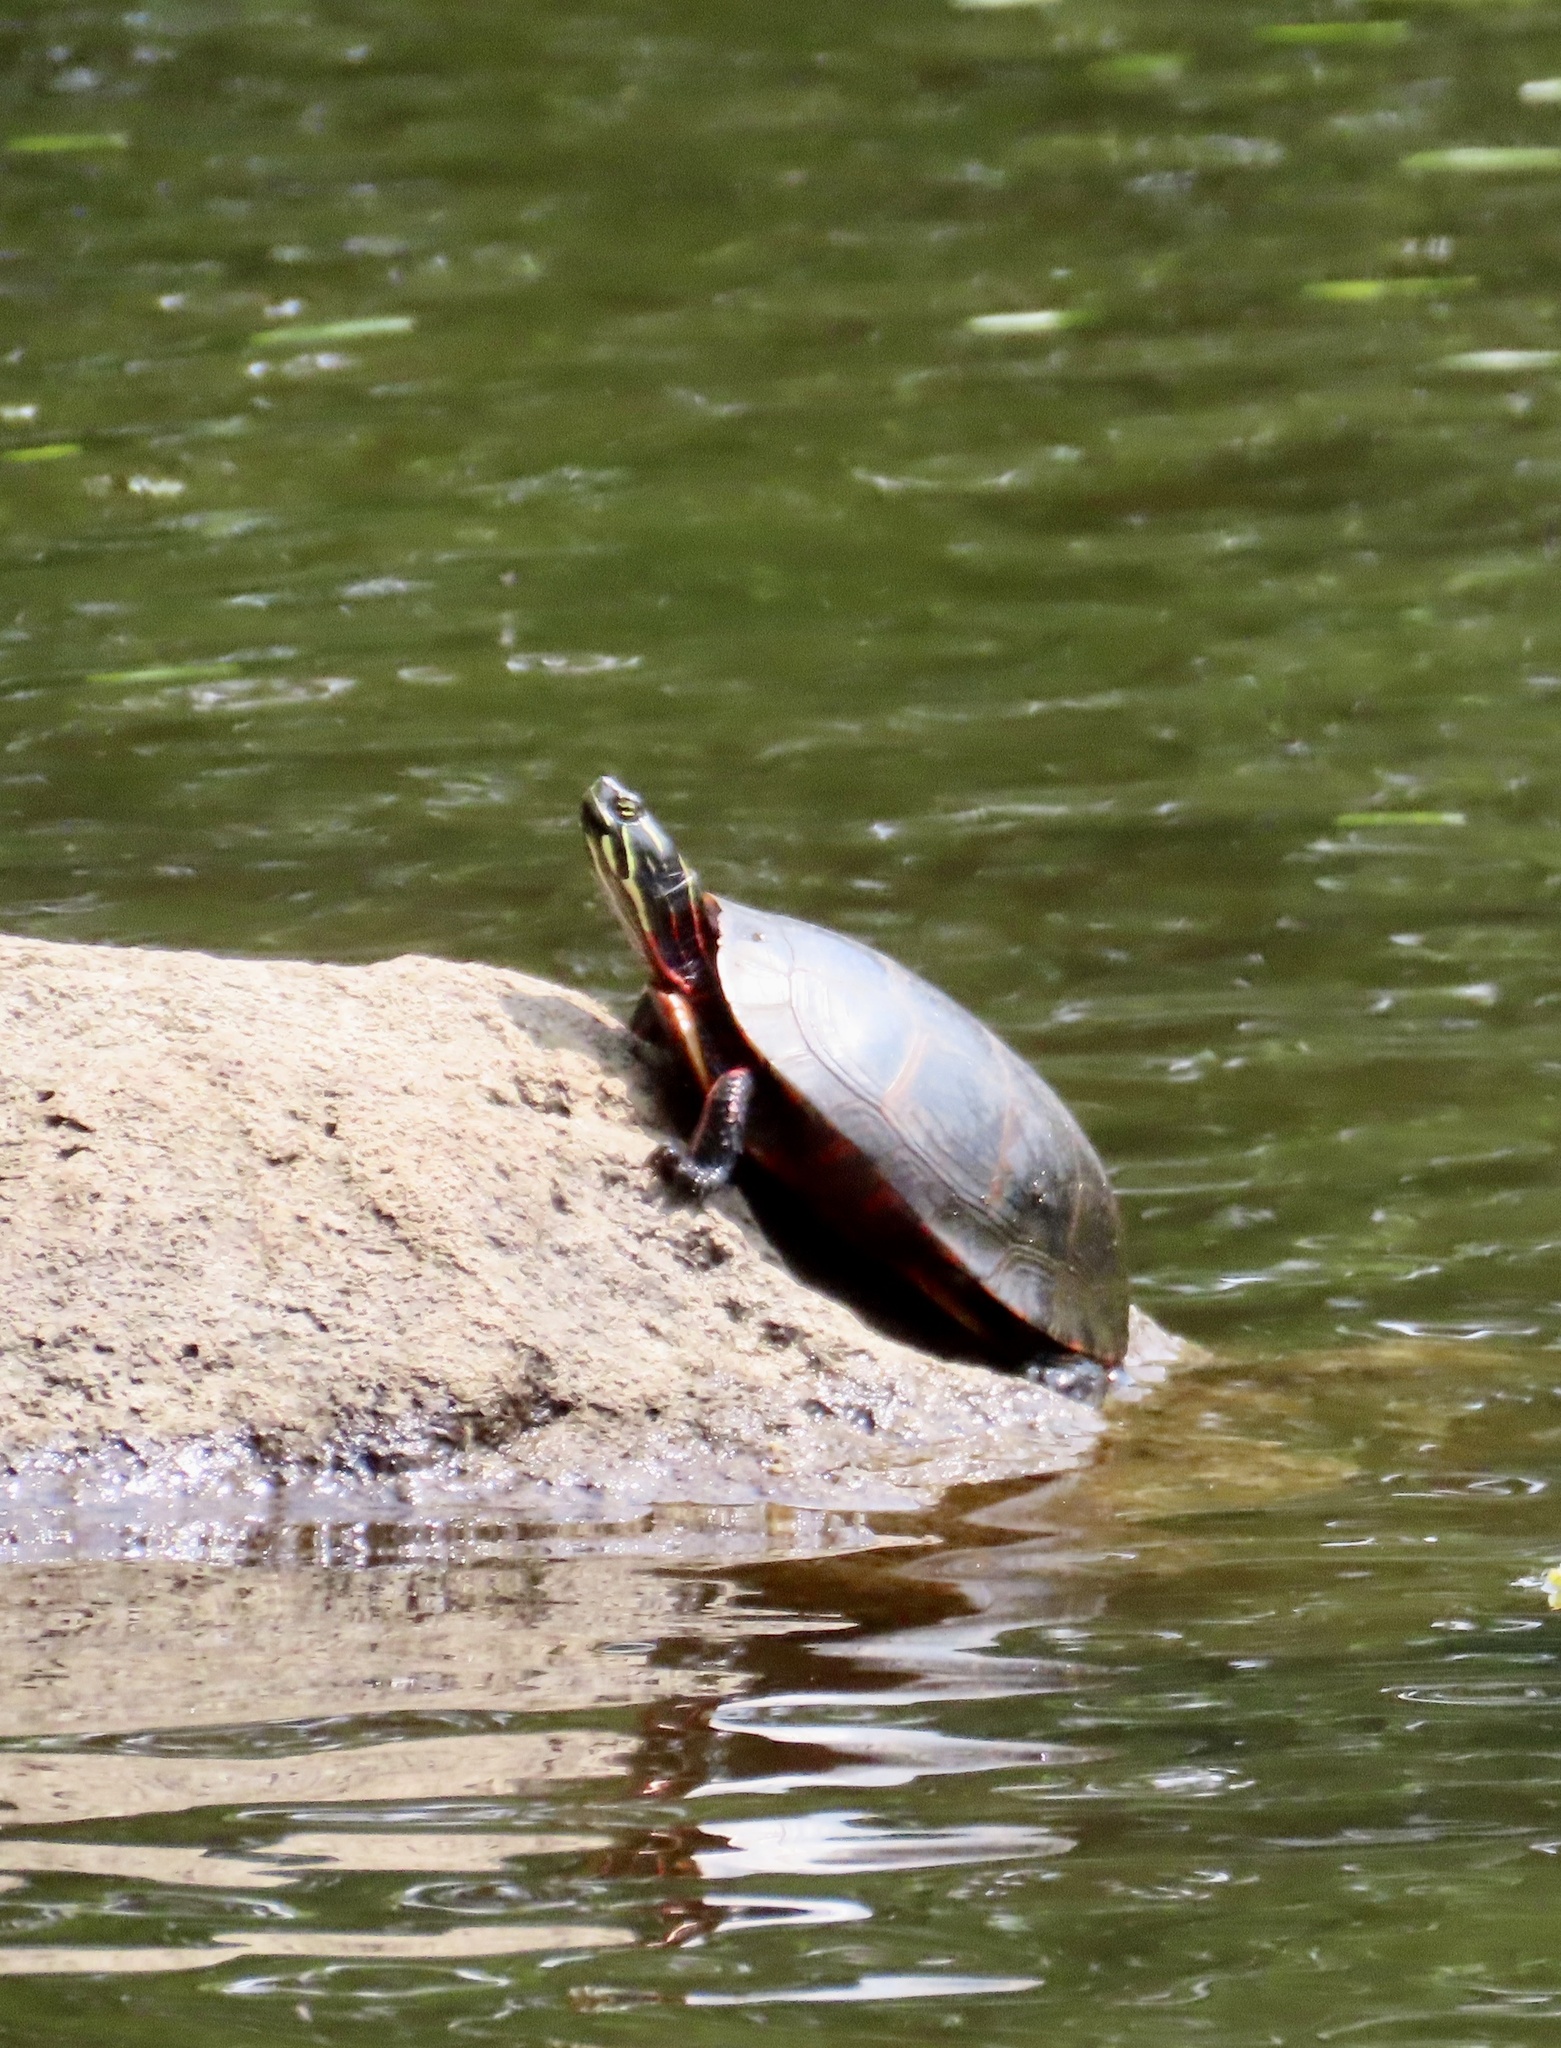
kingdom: Animalia
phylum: Chordata
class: Testudines
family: Emydidae
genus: Chrysemys
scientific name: Chrysemys picta
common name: Painted turtle
